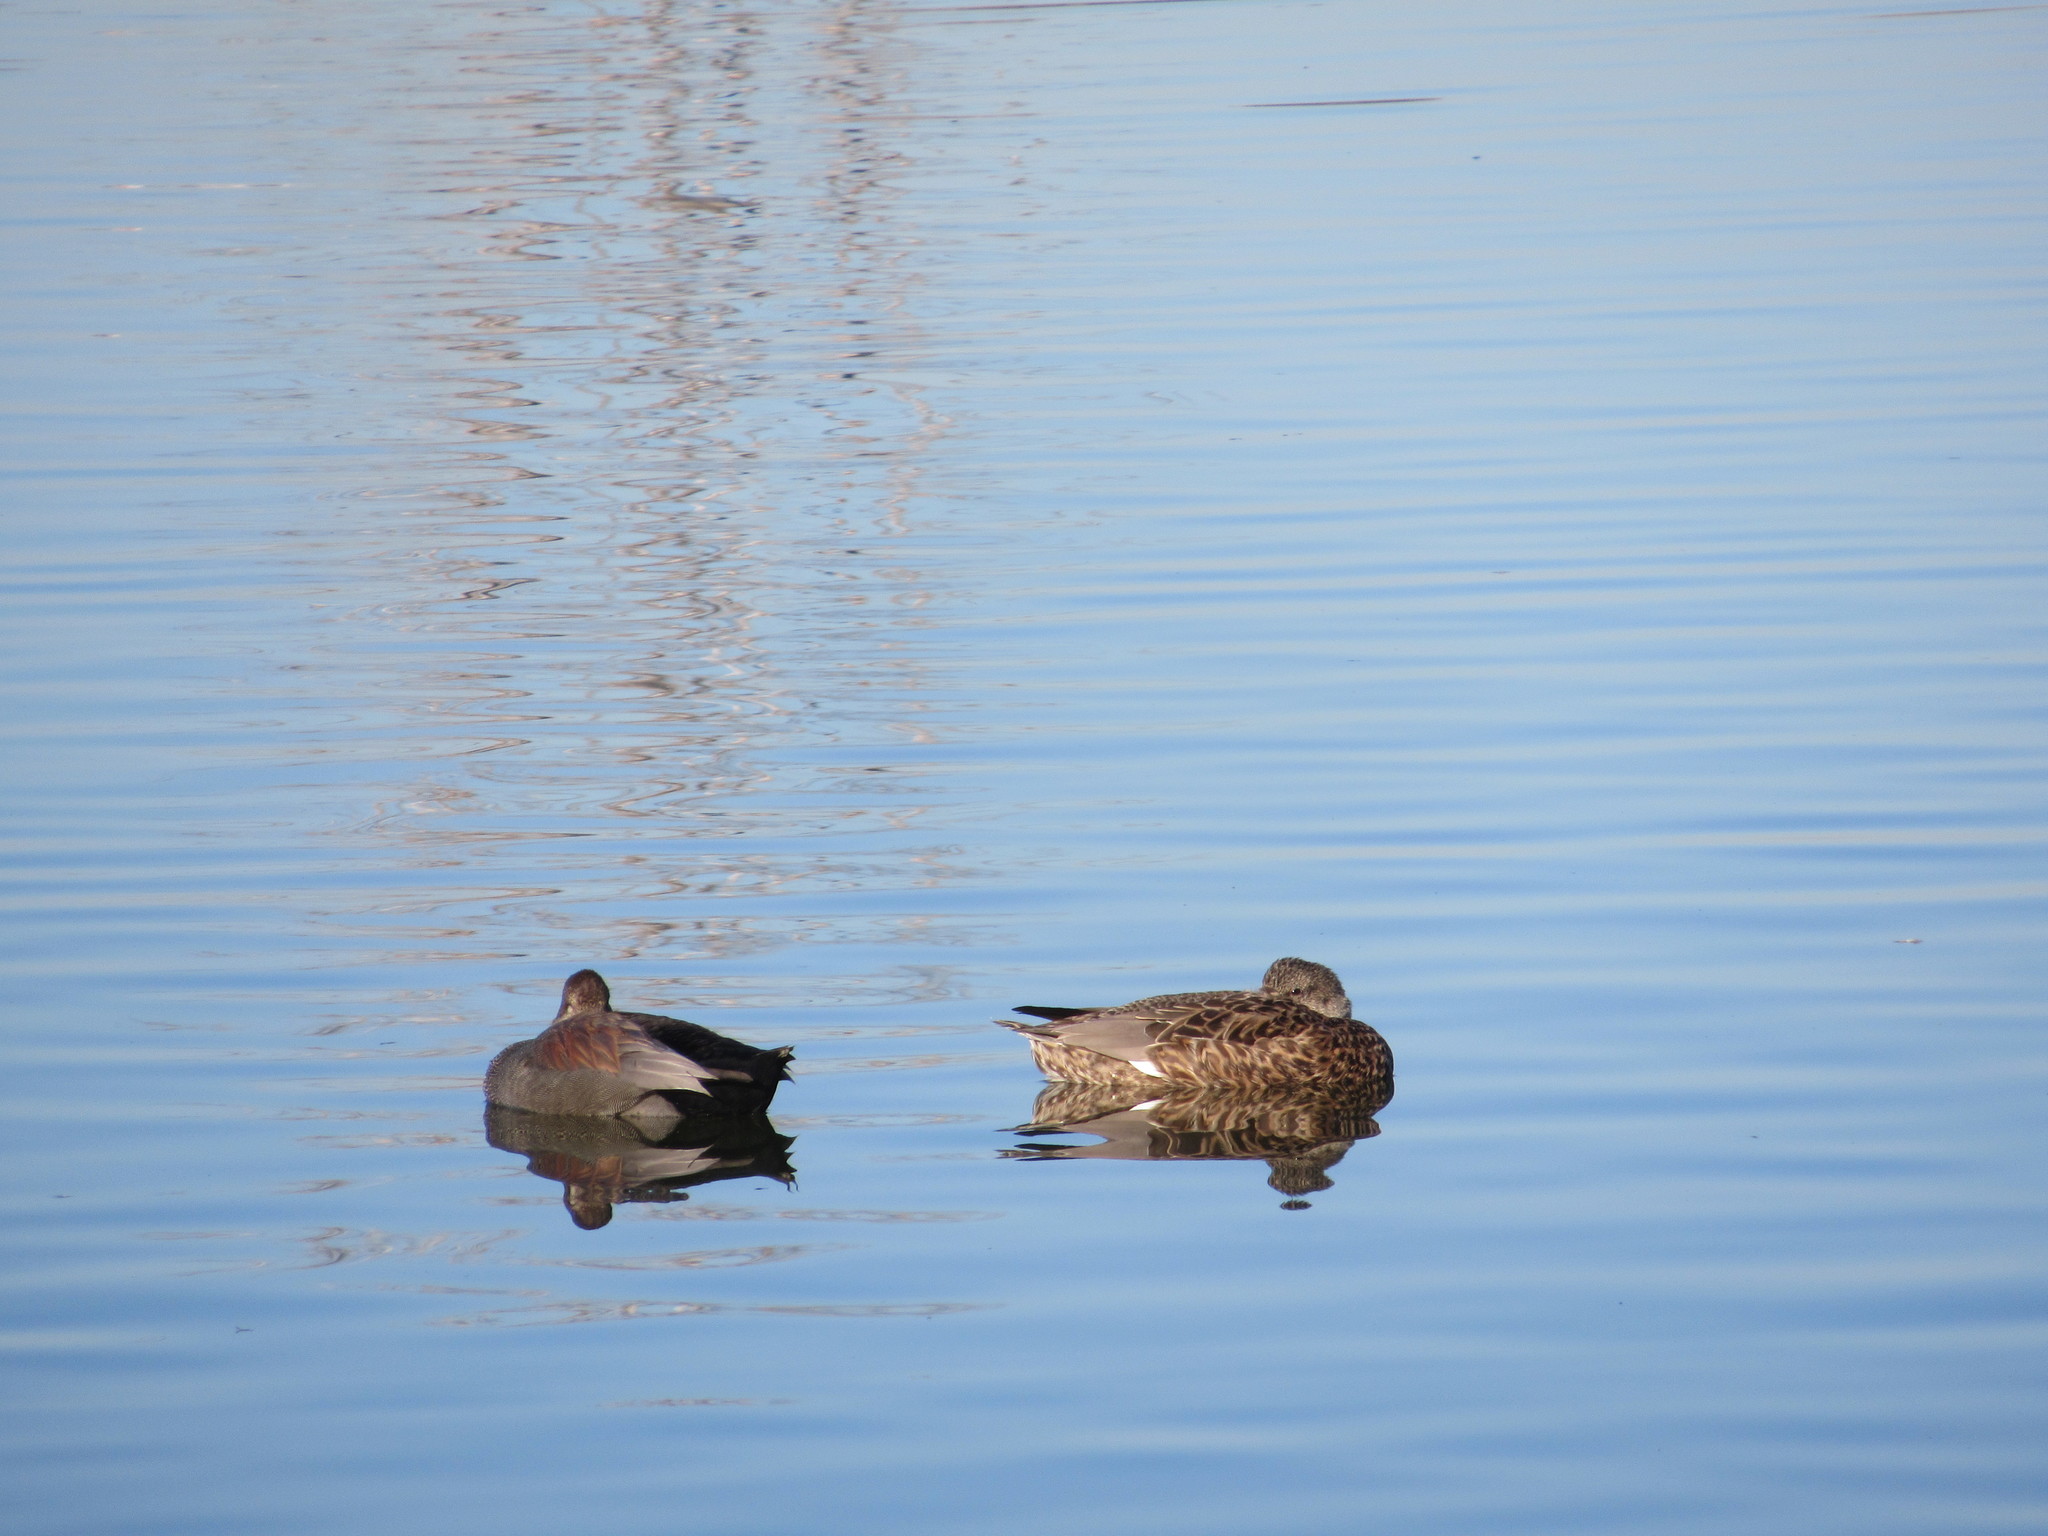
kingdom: Animalia
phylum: Chordata
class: Aves
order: Anseriformes
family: Anatidae
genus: Mareca
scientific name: Mareca strepera
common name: Gadwall
